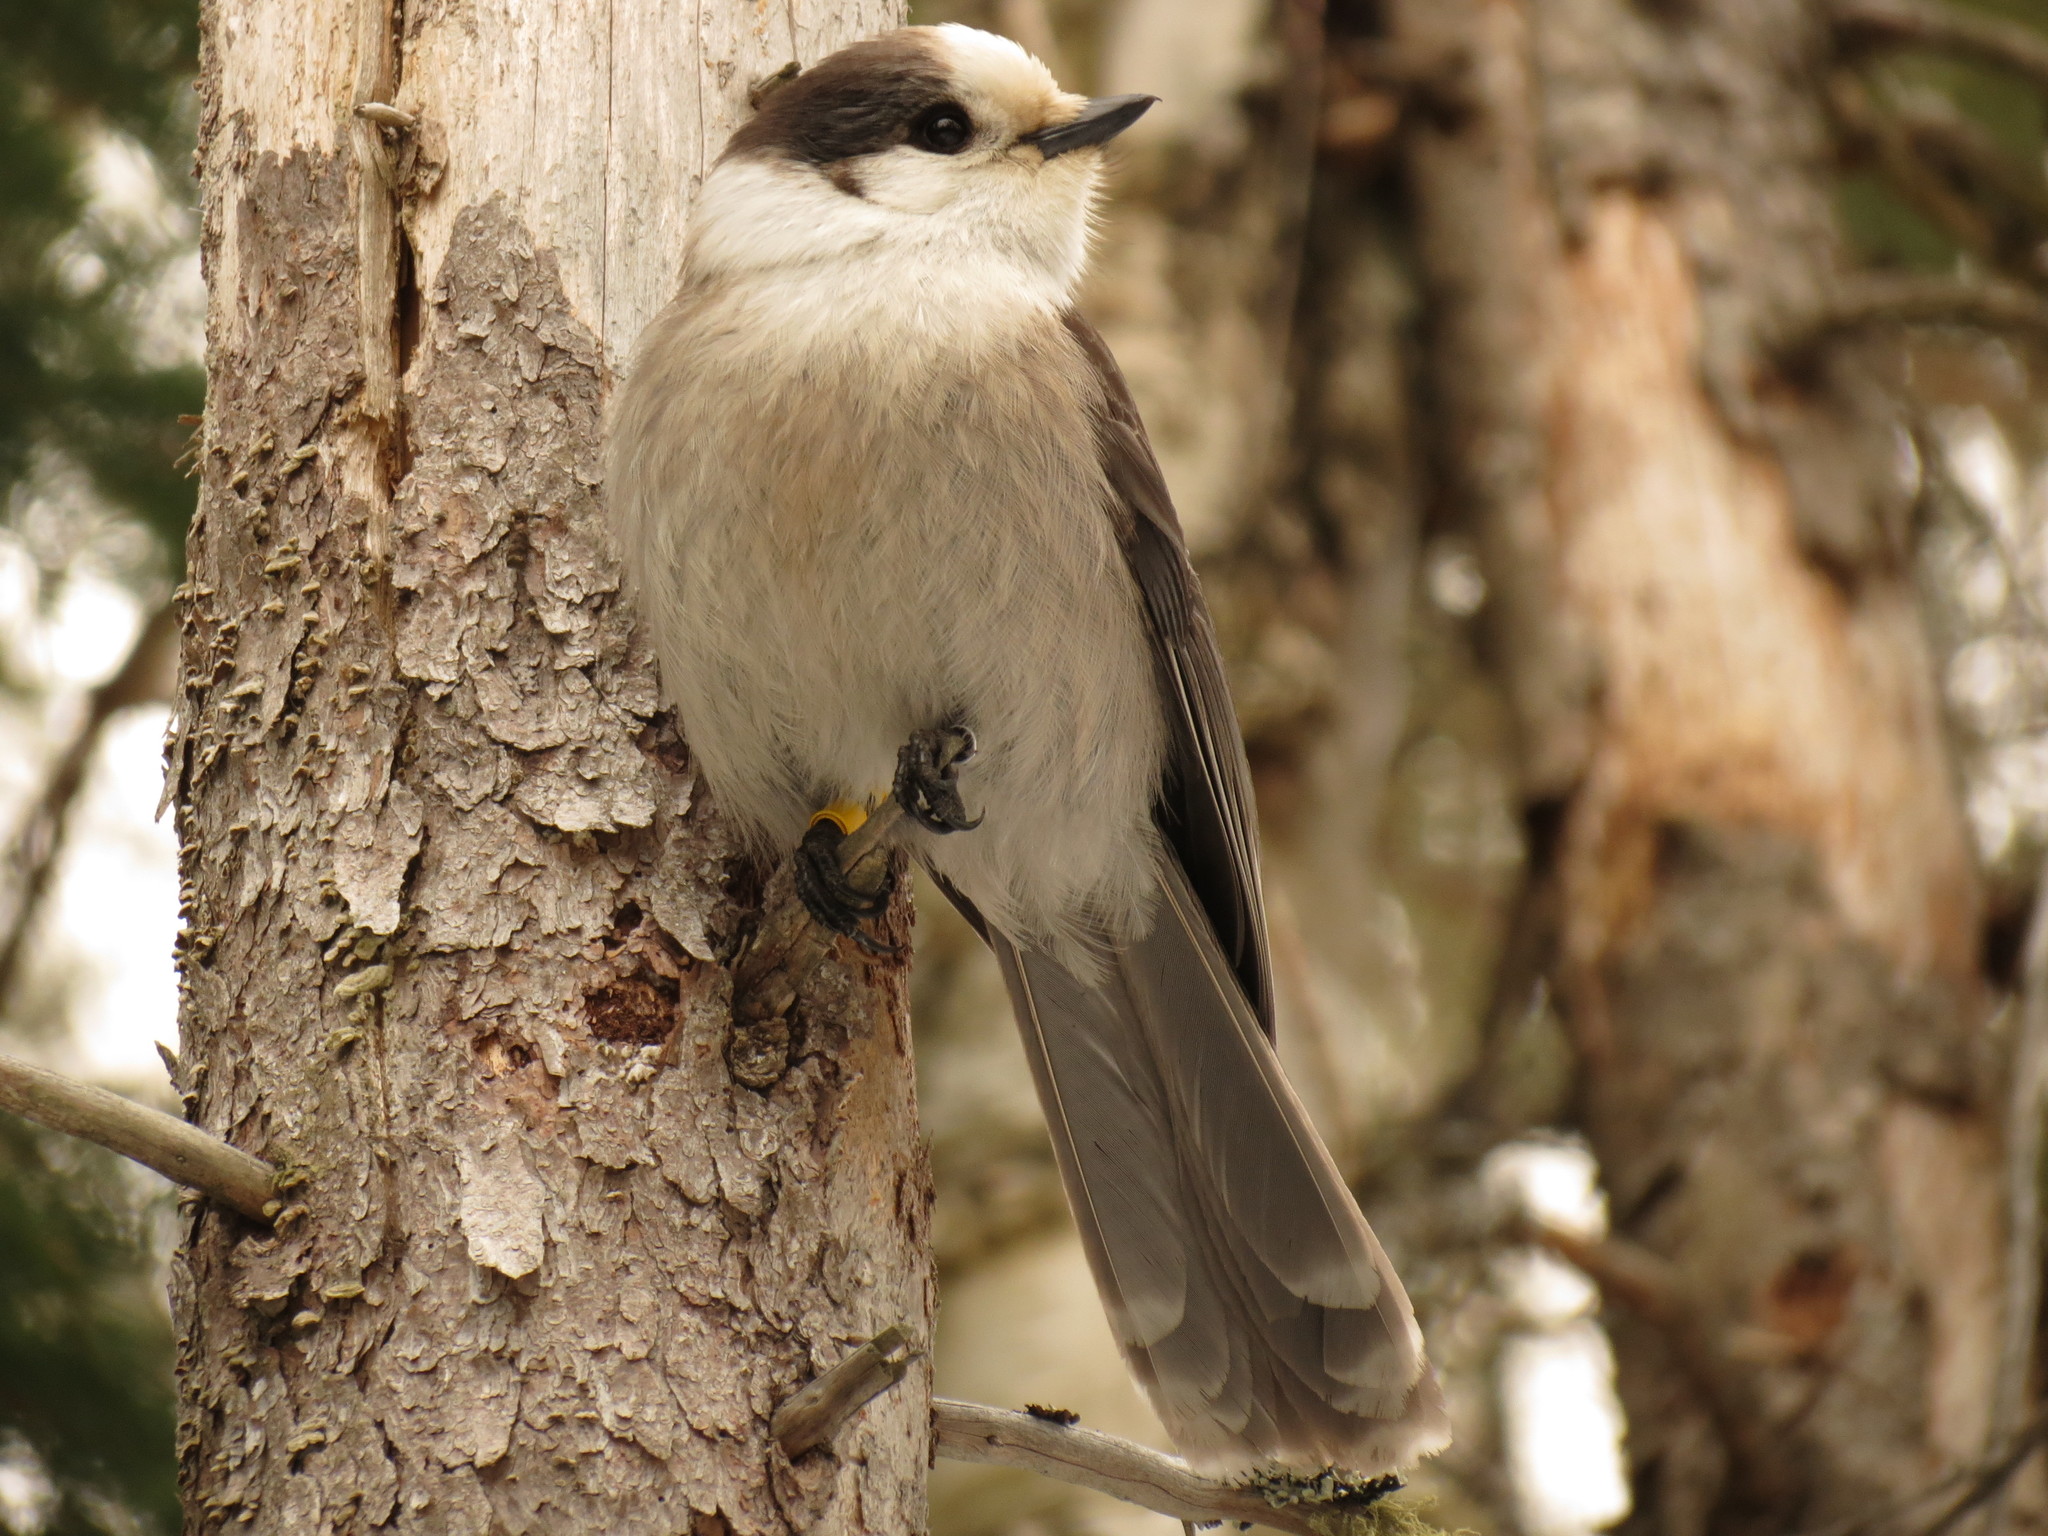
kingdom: Animalia
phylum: Chordata
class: Aves
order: Passeriformes
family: Corvidae
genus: Perisoreus
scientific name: Perisoreus canadensis
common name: Gray jay
